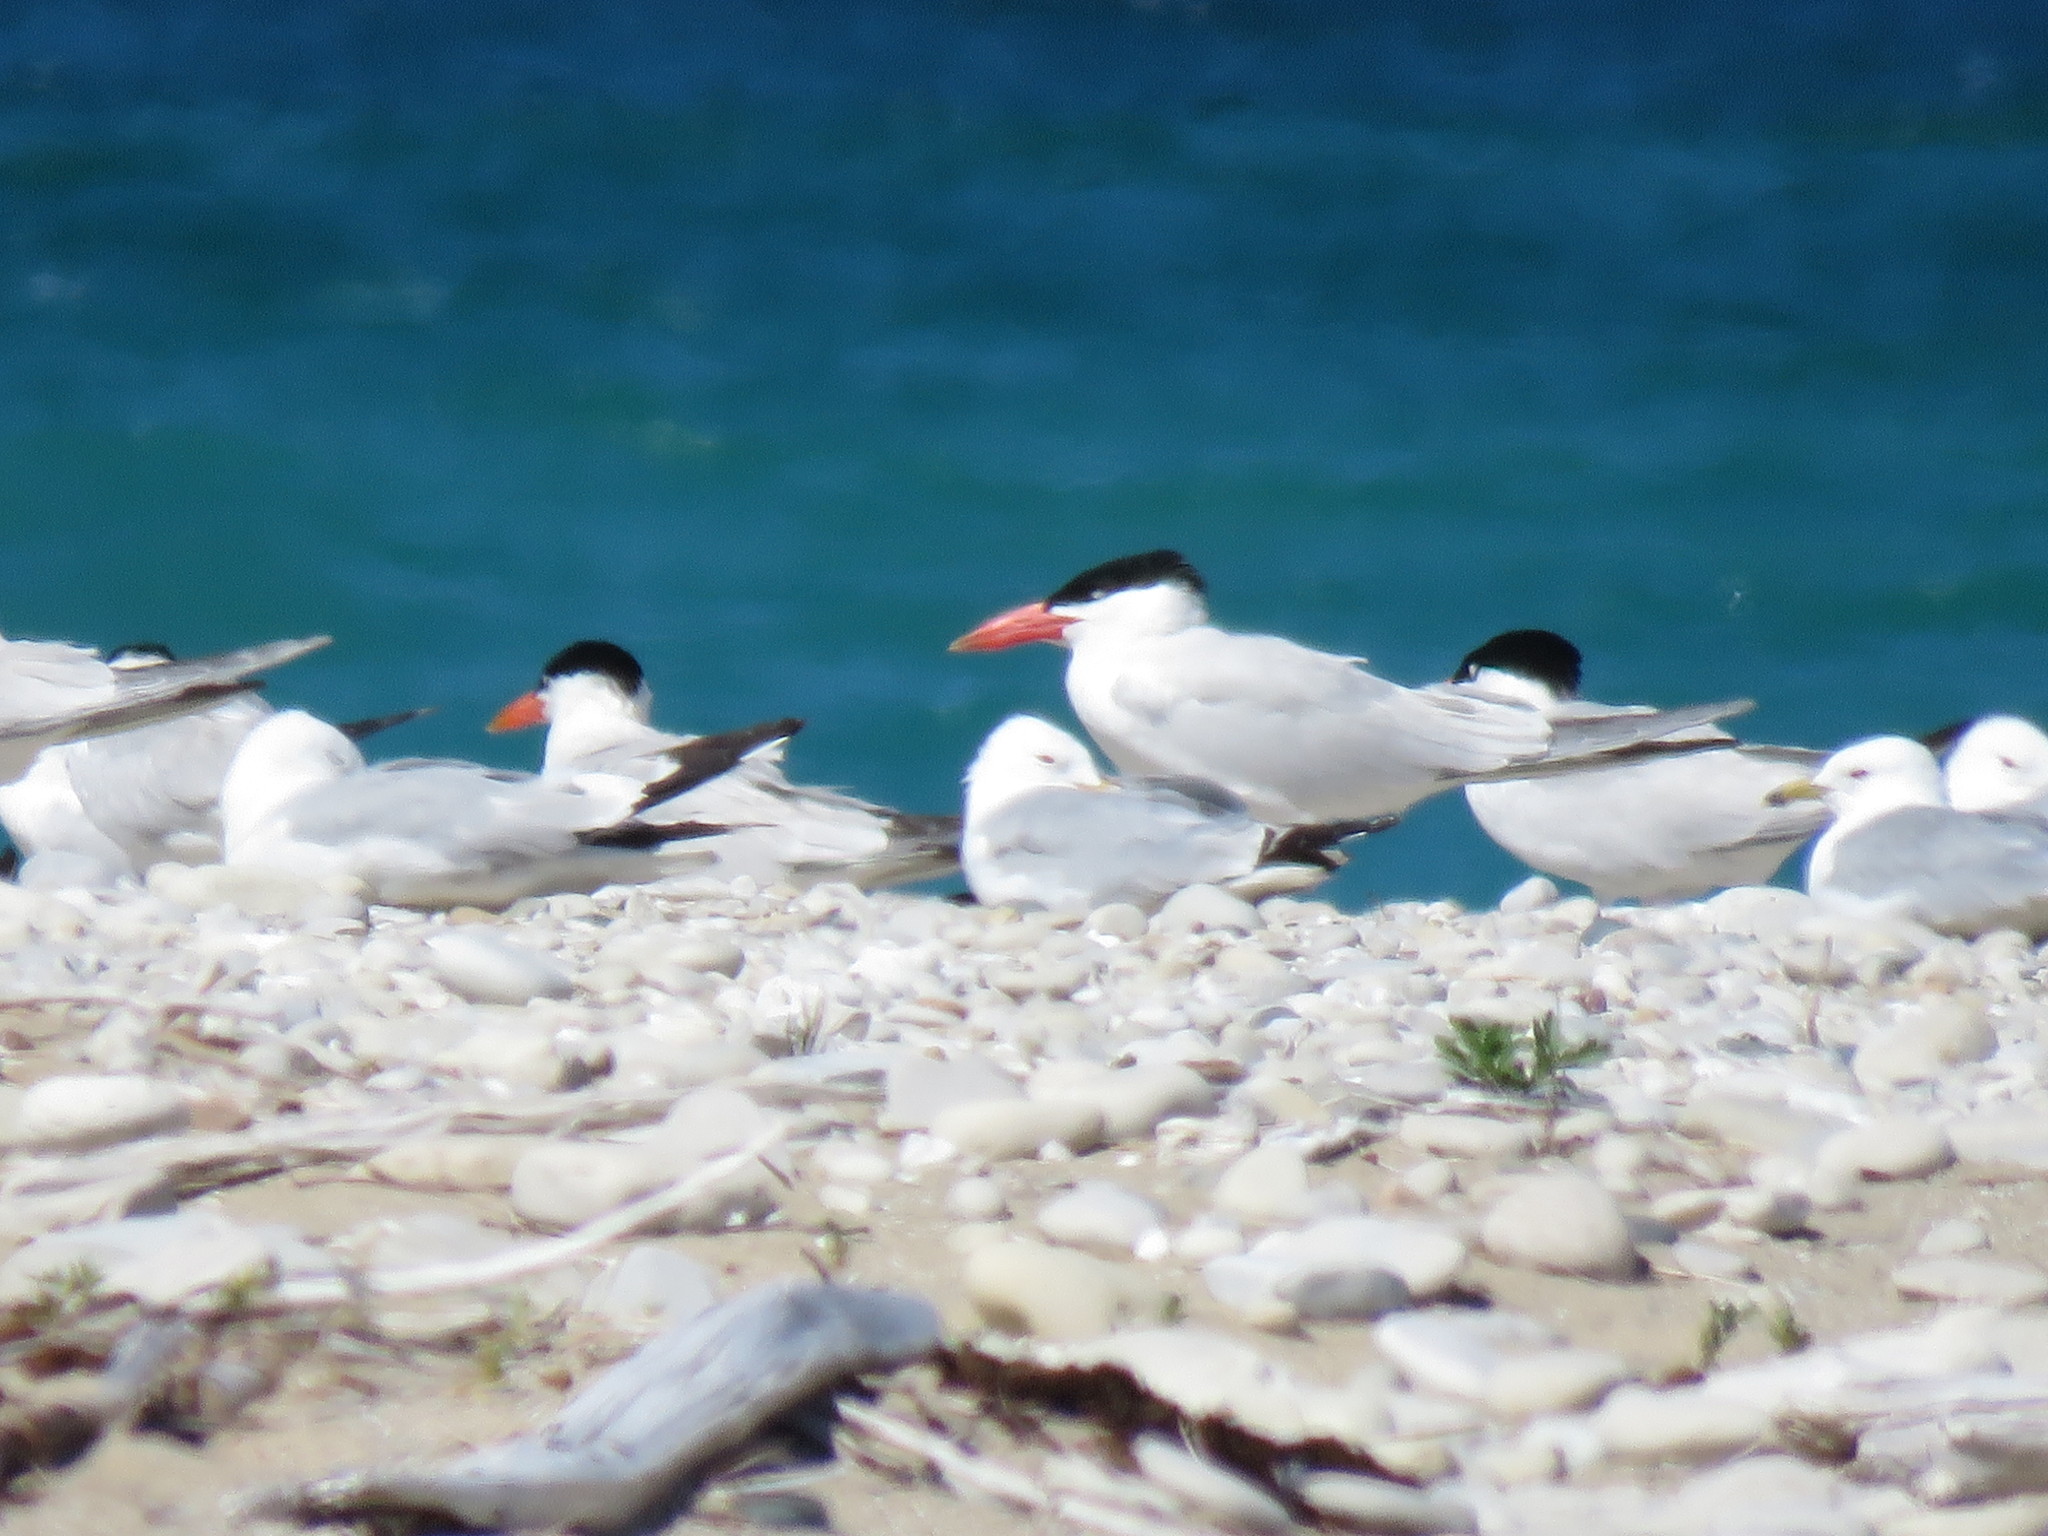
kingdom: Animalia
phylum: Chordata
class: Aves
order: Charadriiformes
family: Laridae
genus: Hydroprogne
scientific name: Hydroprogne caspia
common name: Caspian tern
